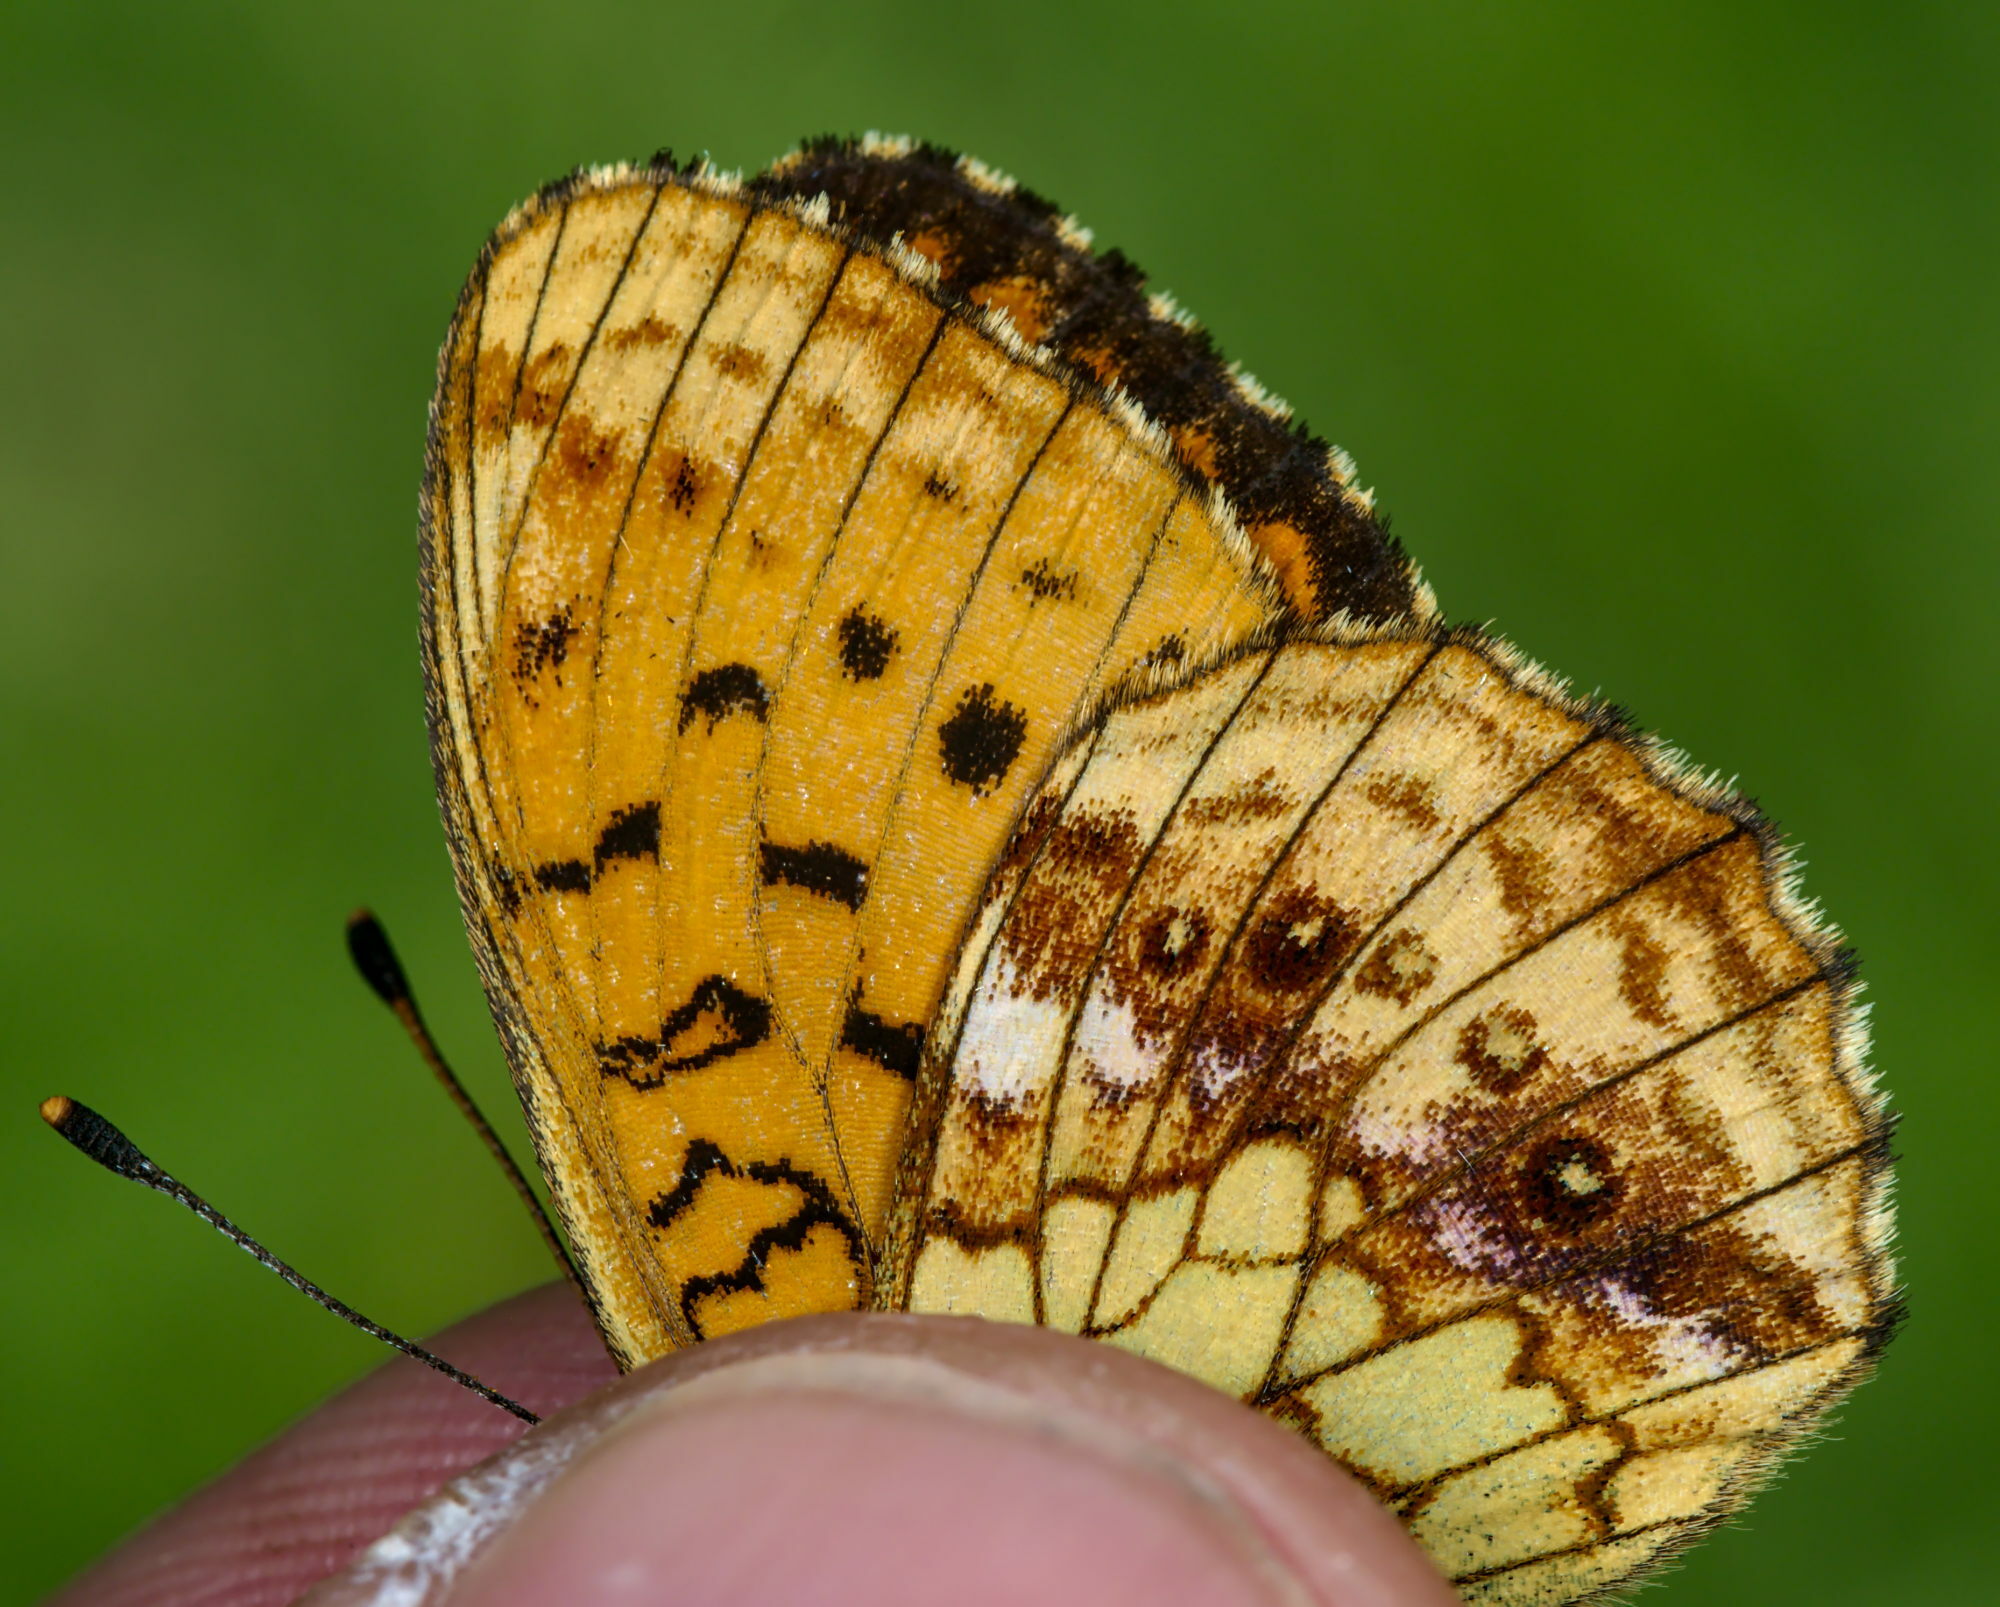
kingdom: Animalia
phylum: Arthropoda
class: Insecta
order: Lepidoptera
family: Nymphalidae
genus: Brenthis
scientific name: Brenthis ino
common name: Lesser marbled fritillary
